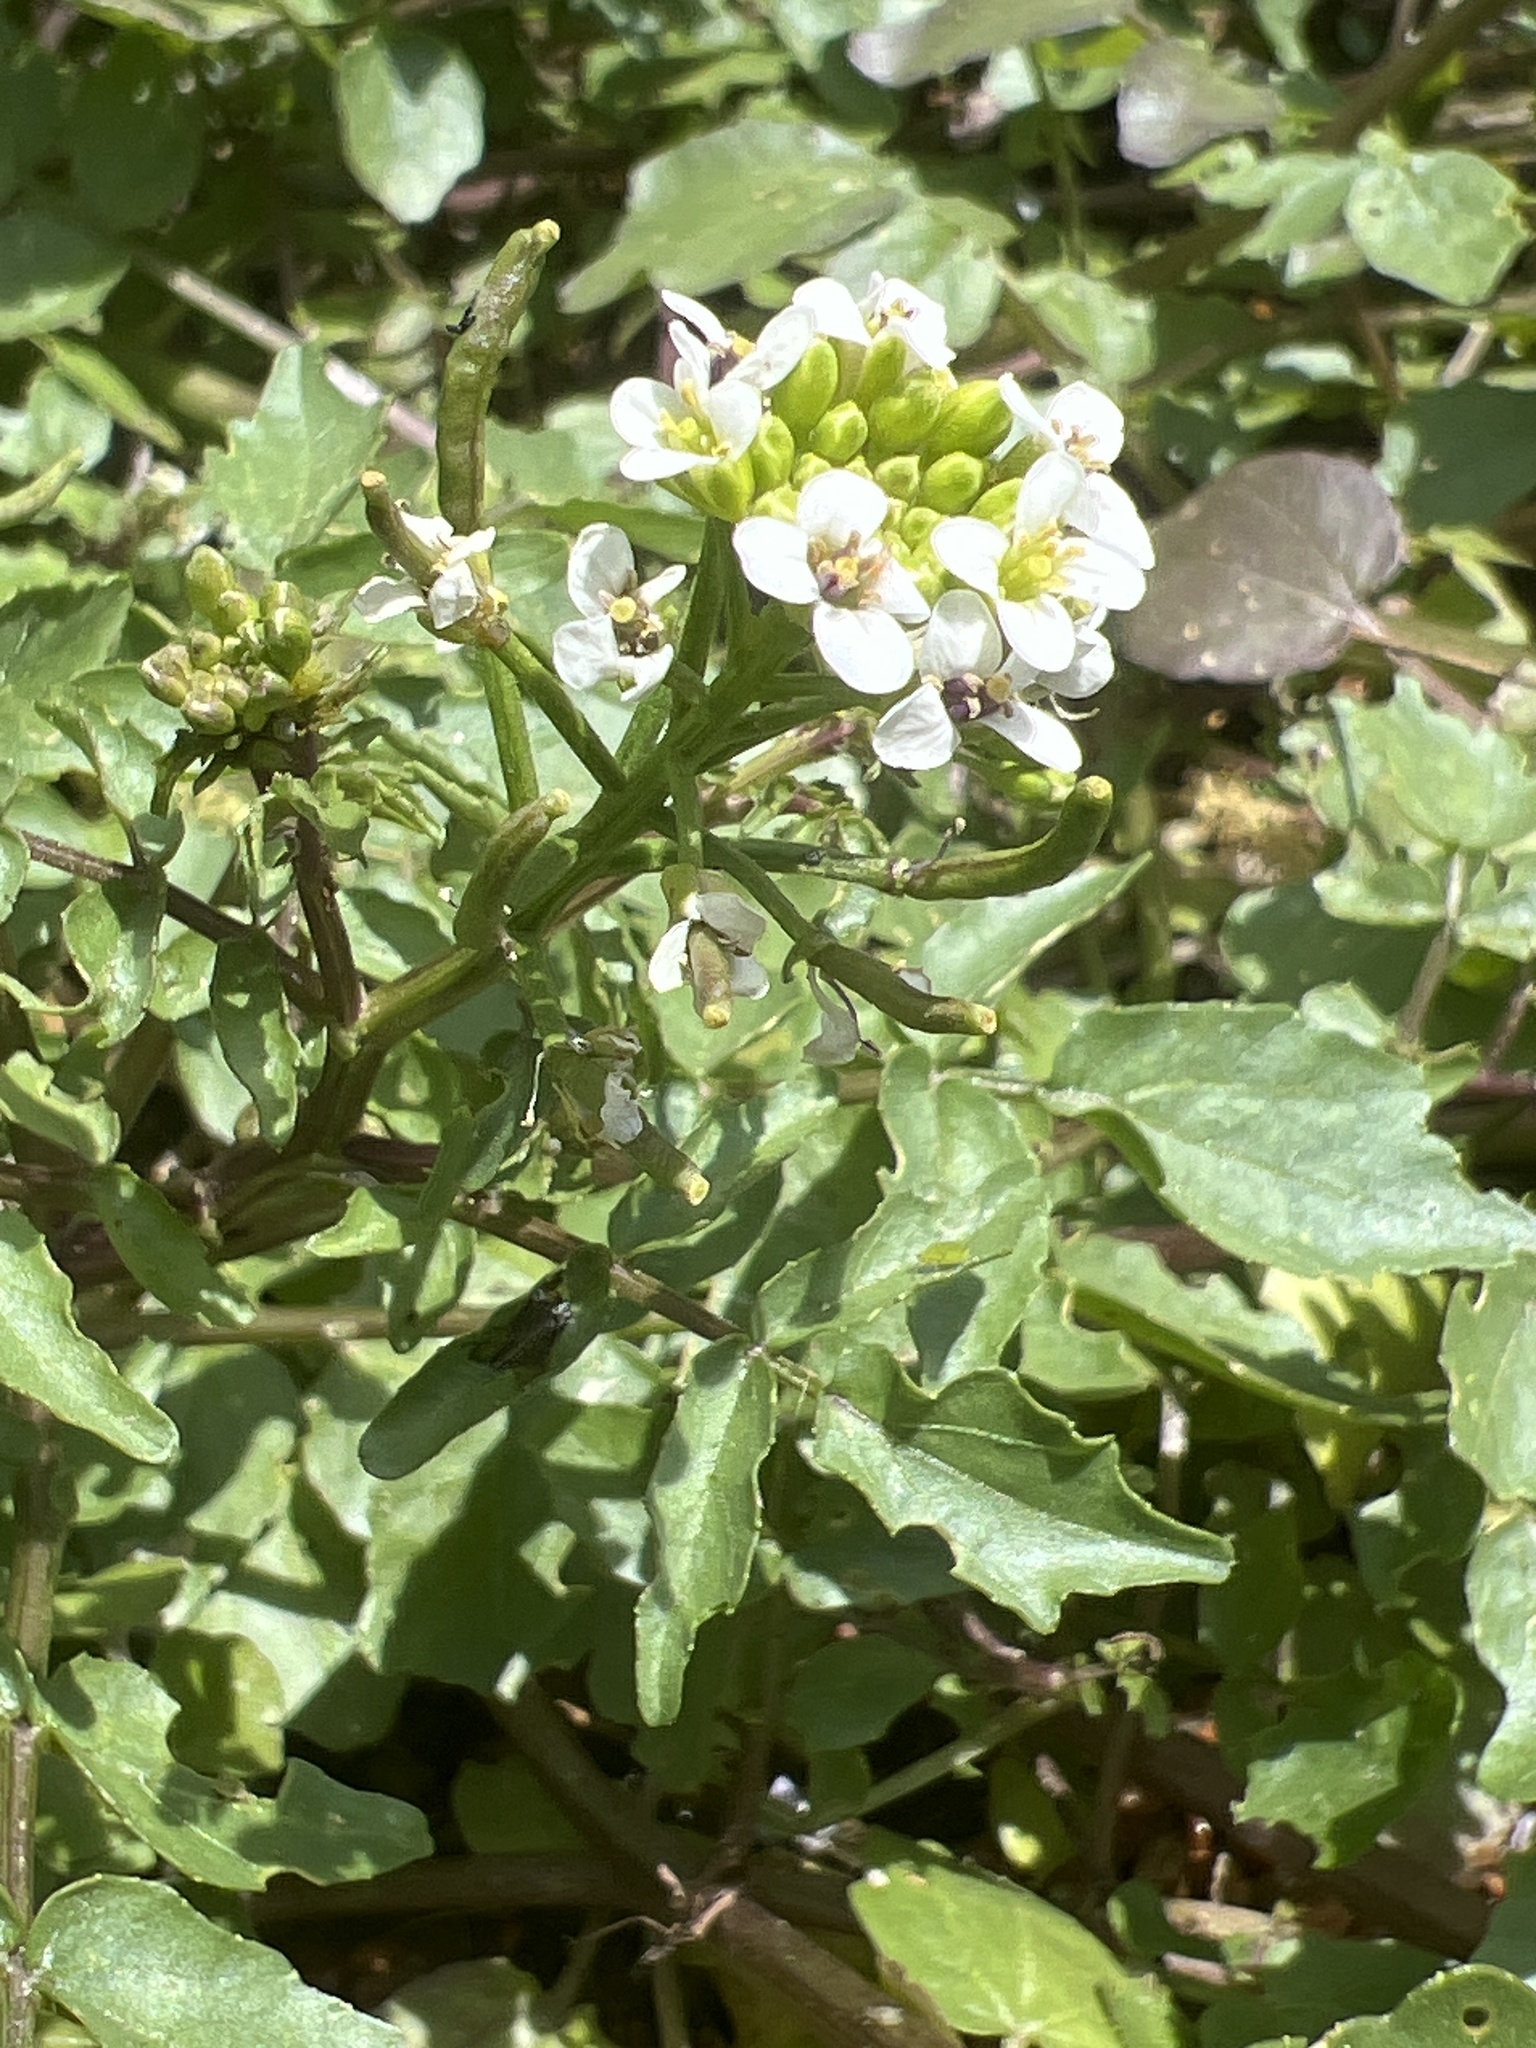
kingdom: Plantae
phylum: Tracheophyta
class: Magnoliopsida
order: Brassicales
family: Brassicaceae
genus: Nasturtium
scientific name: Nasturtium officinale
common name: Watercress
